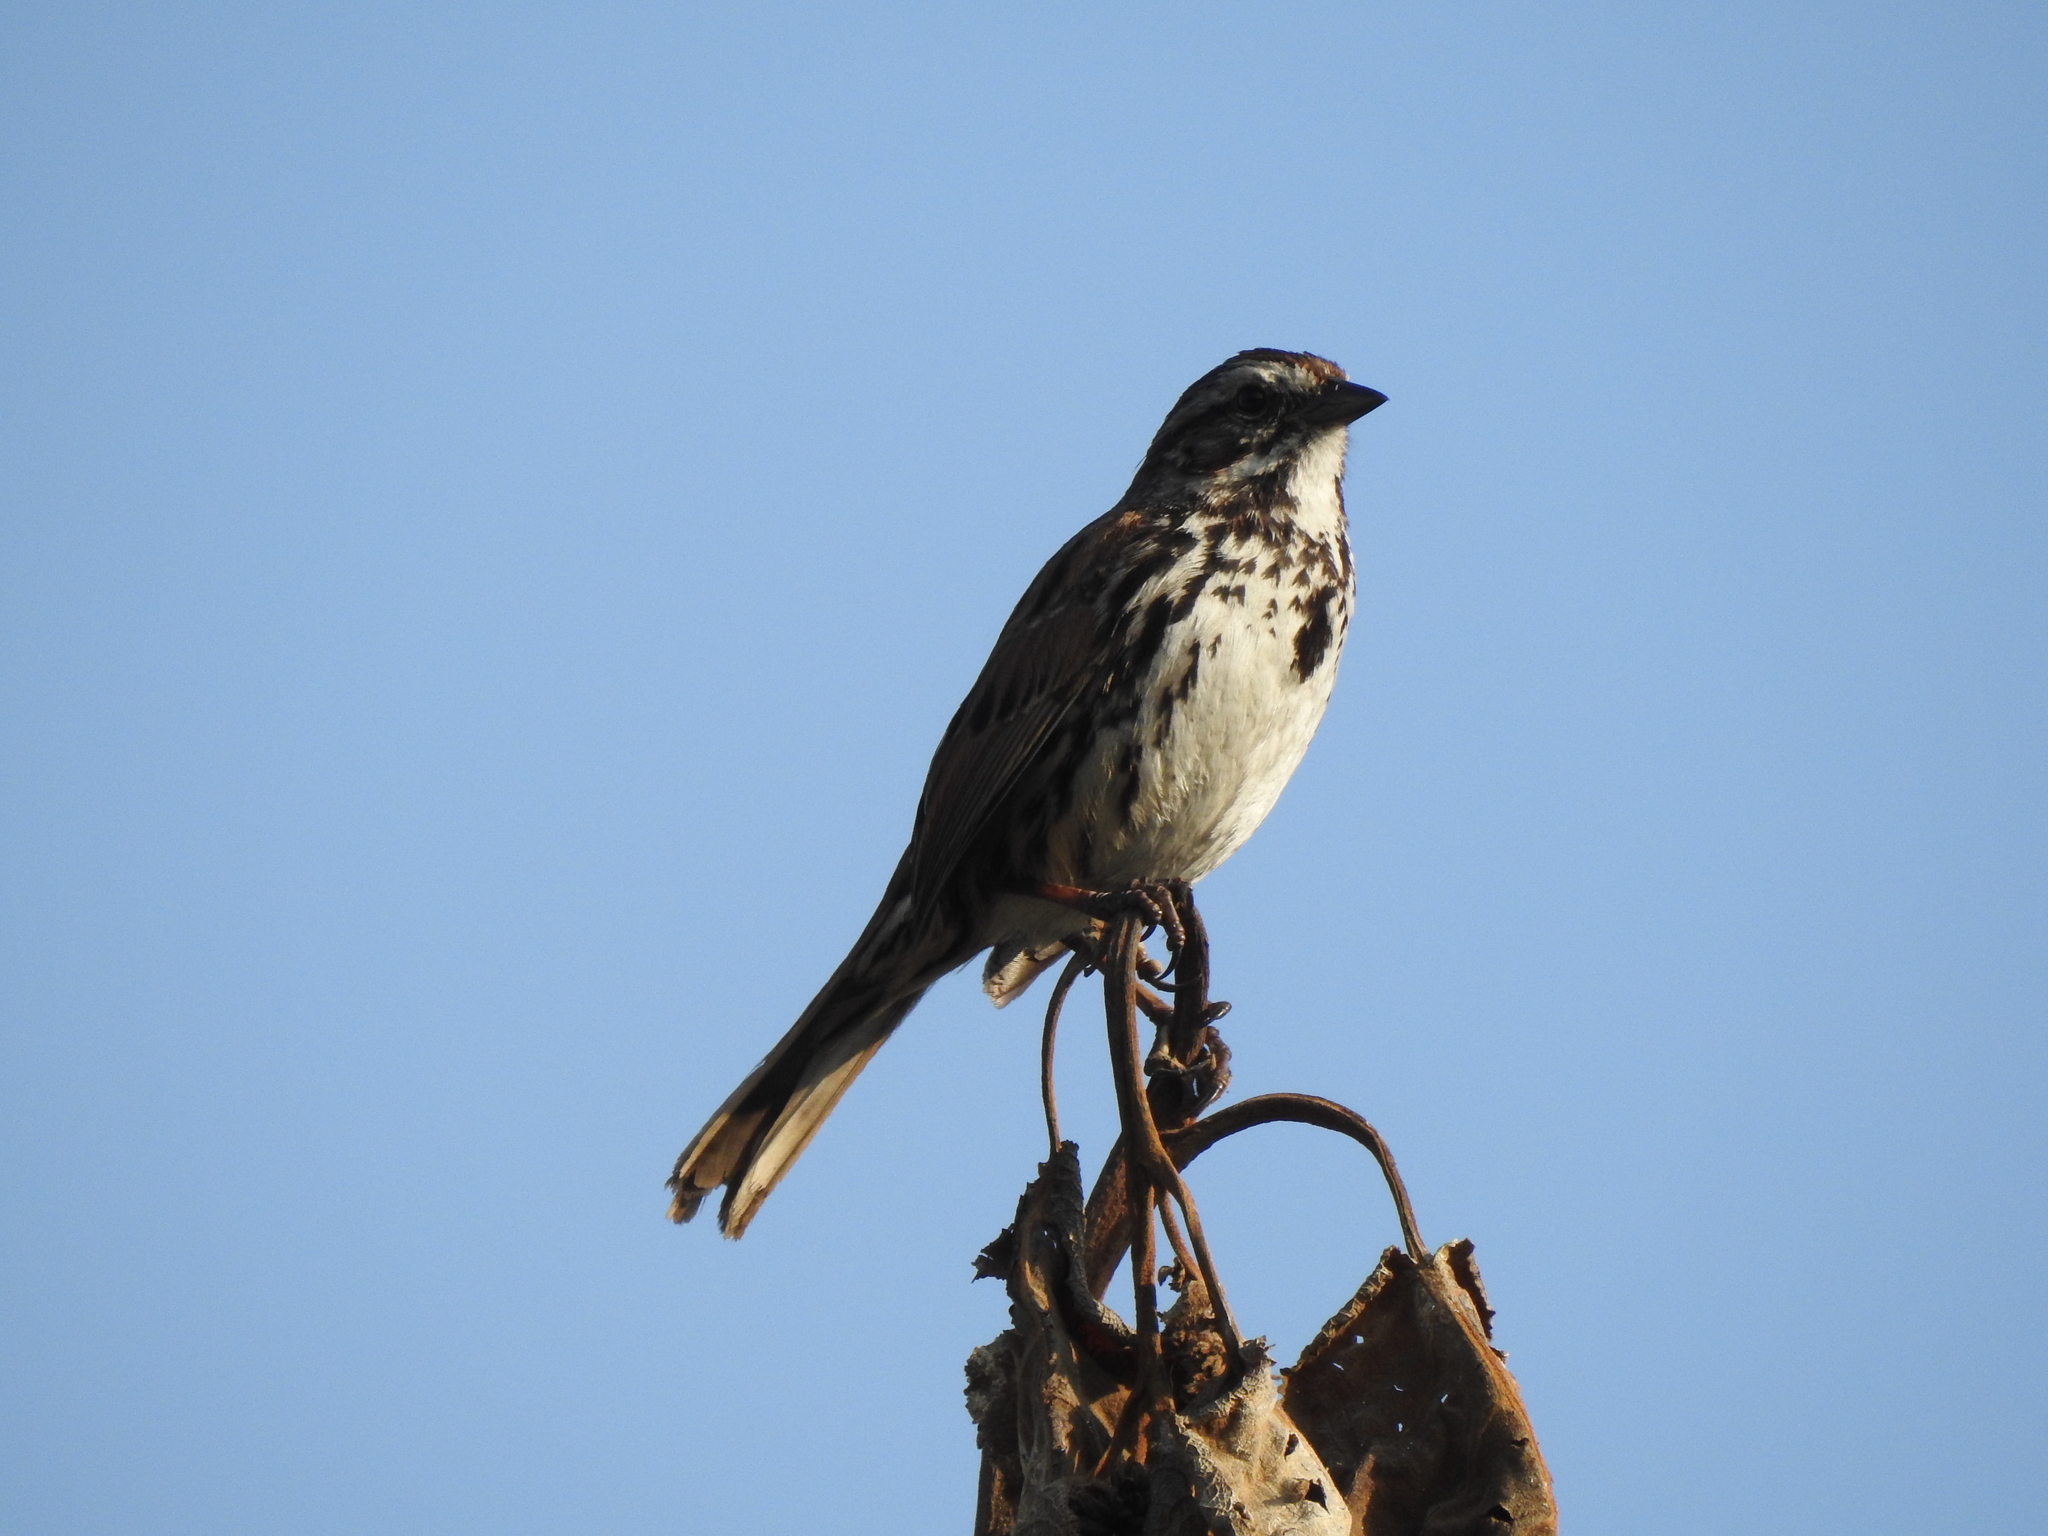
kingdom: Animalia
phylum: Chordata
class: Aves
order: Passeriformes
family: Passerellidae
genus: Melospiza
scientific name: Melospiza melodia
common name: Song sparrow
